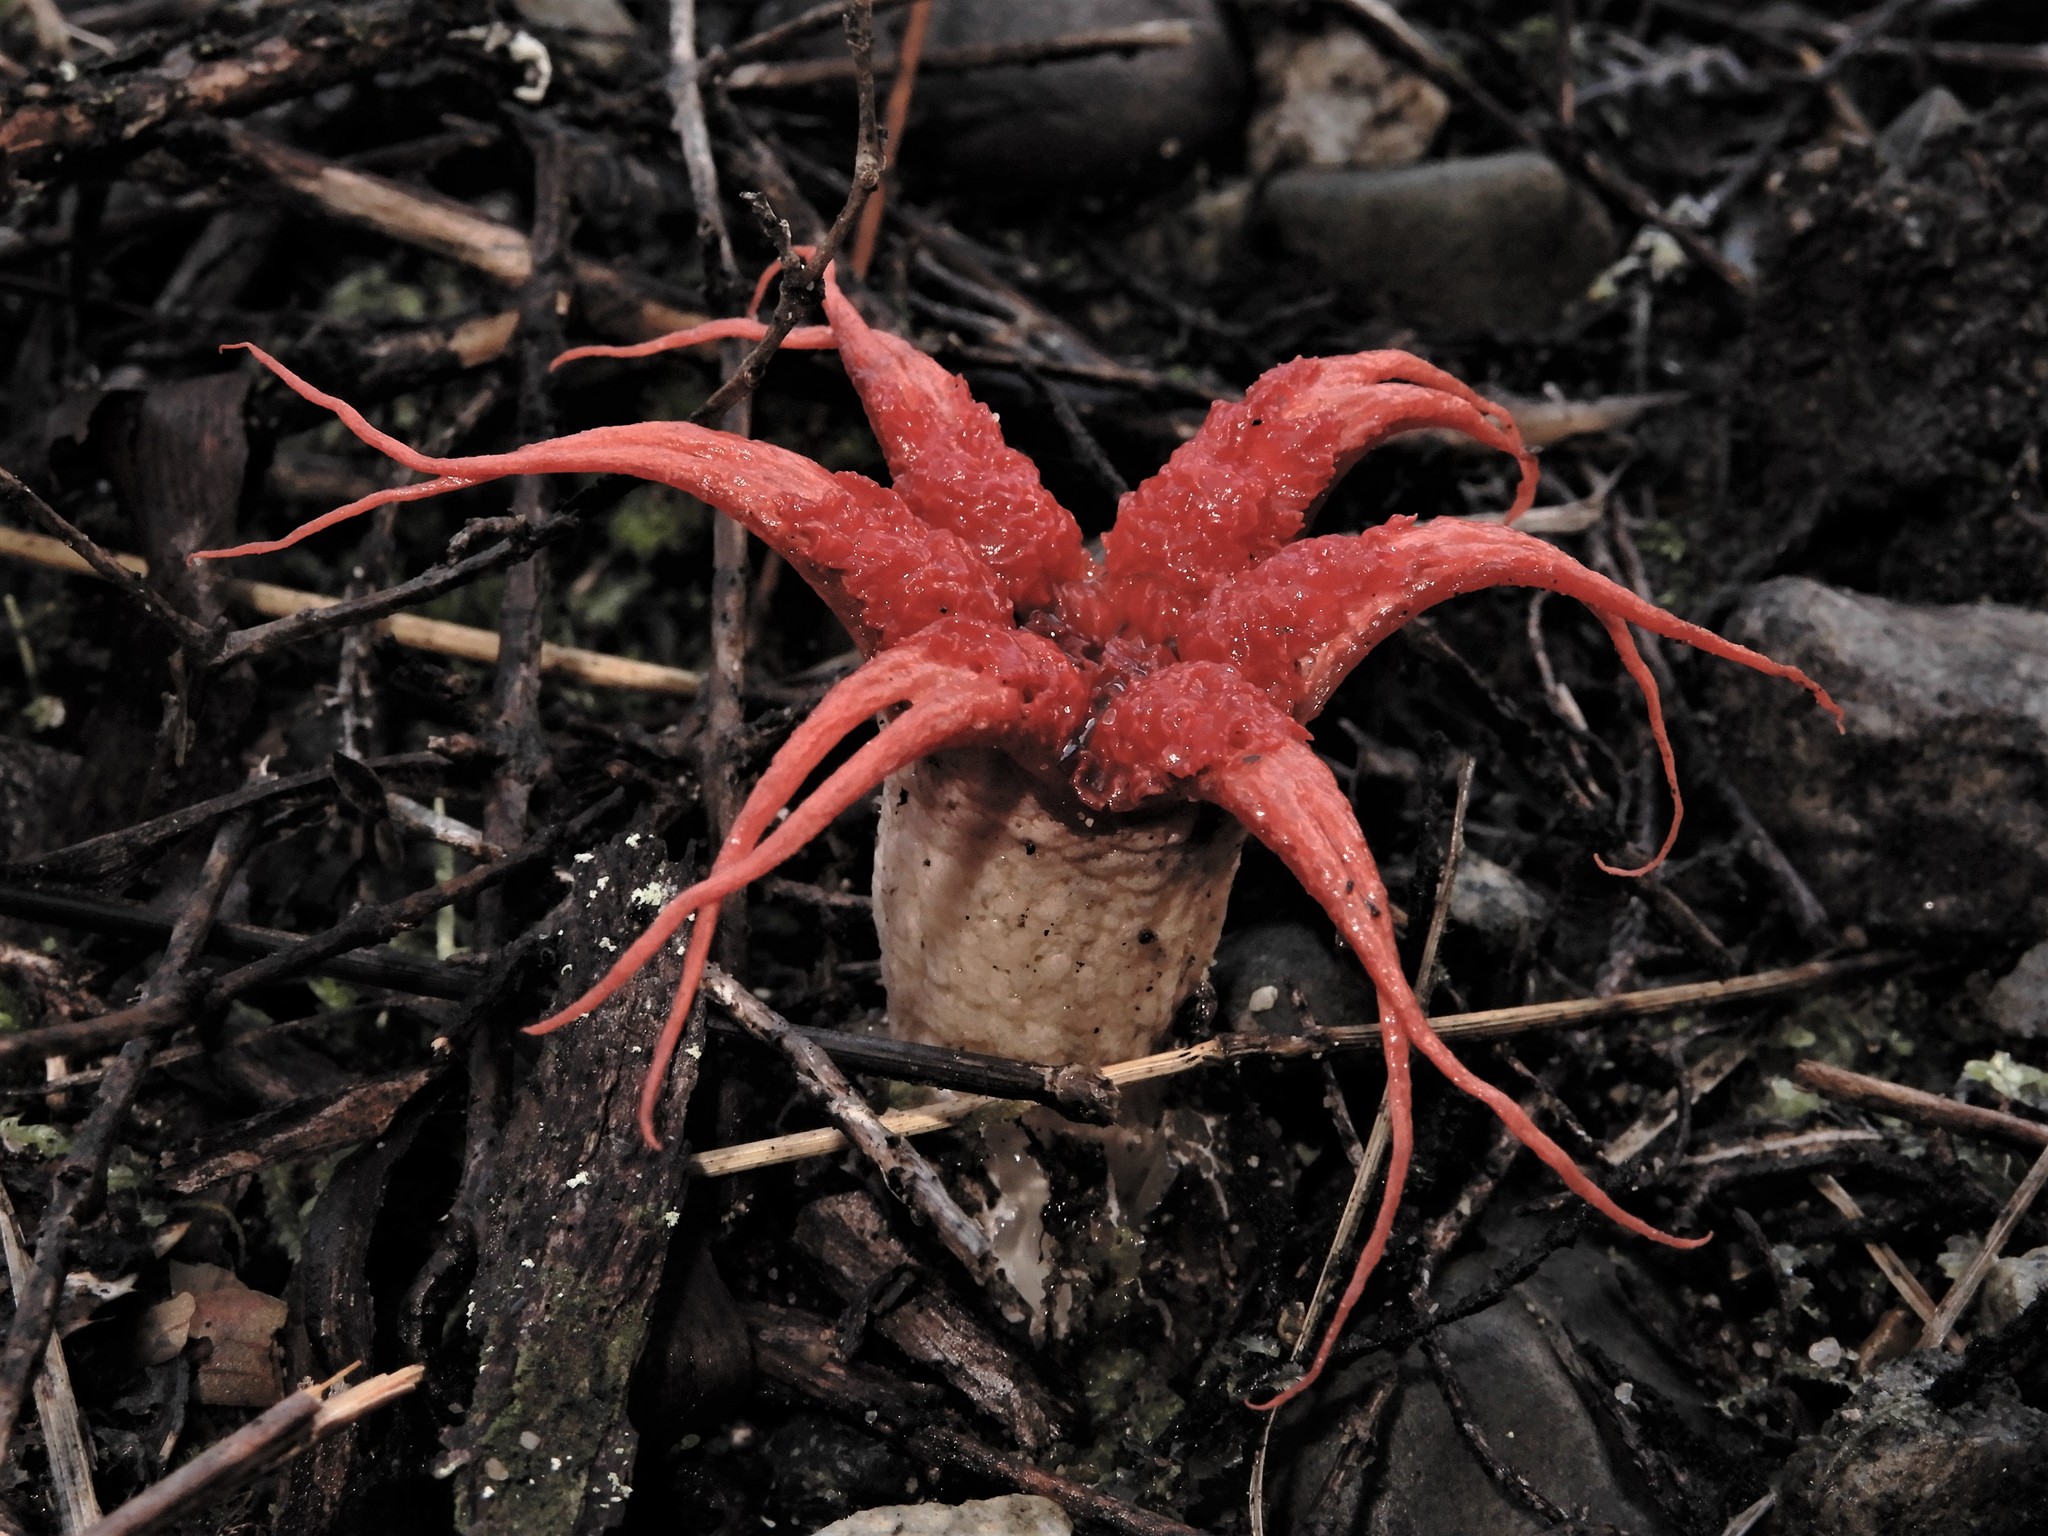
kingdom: Fungi
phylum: Basidiomycota
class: Agaricomycetes
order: Phallales
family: Phallaceae
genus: Aseroe
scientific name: Aseroe rubra
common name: Starfish fungus
